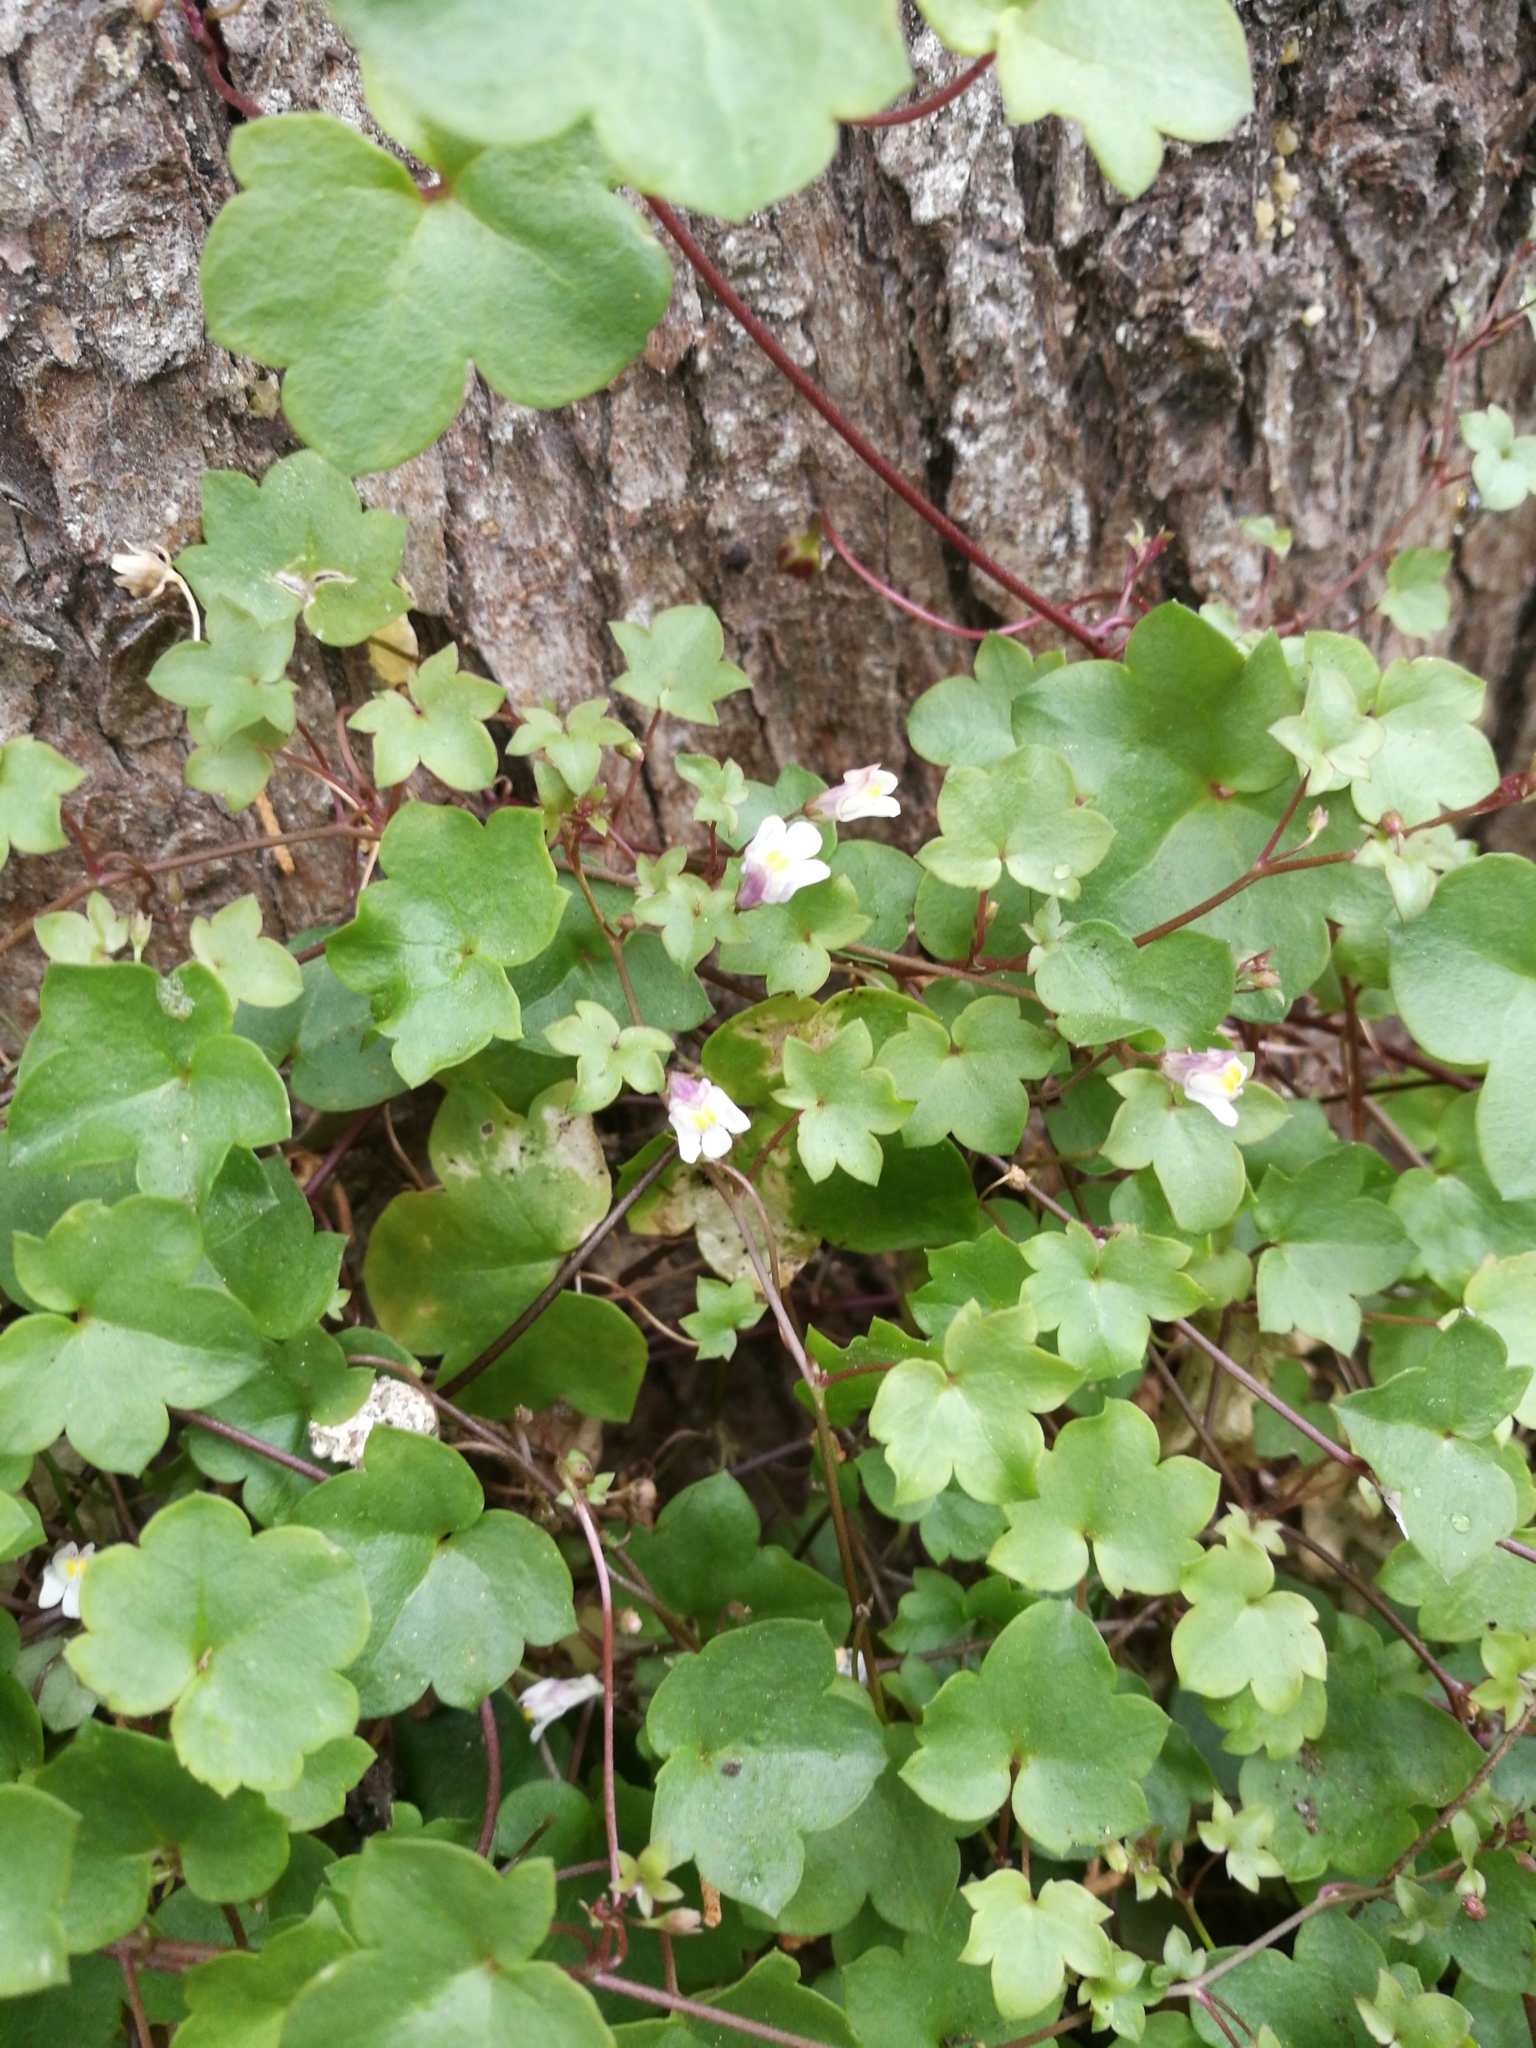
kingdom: Plantae
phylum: Tracheophyta
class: Magnoliopsida
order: Lamiales
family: Plantaginaceae
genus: Cymbalaria
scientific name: Cymbalaria muralis
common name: Ivy-leaved toadflax
